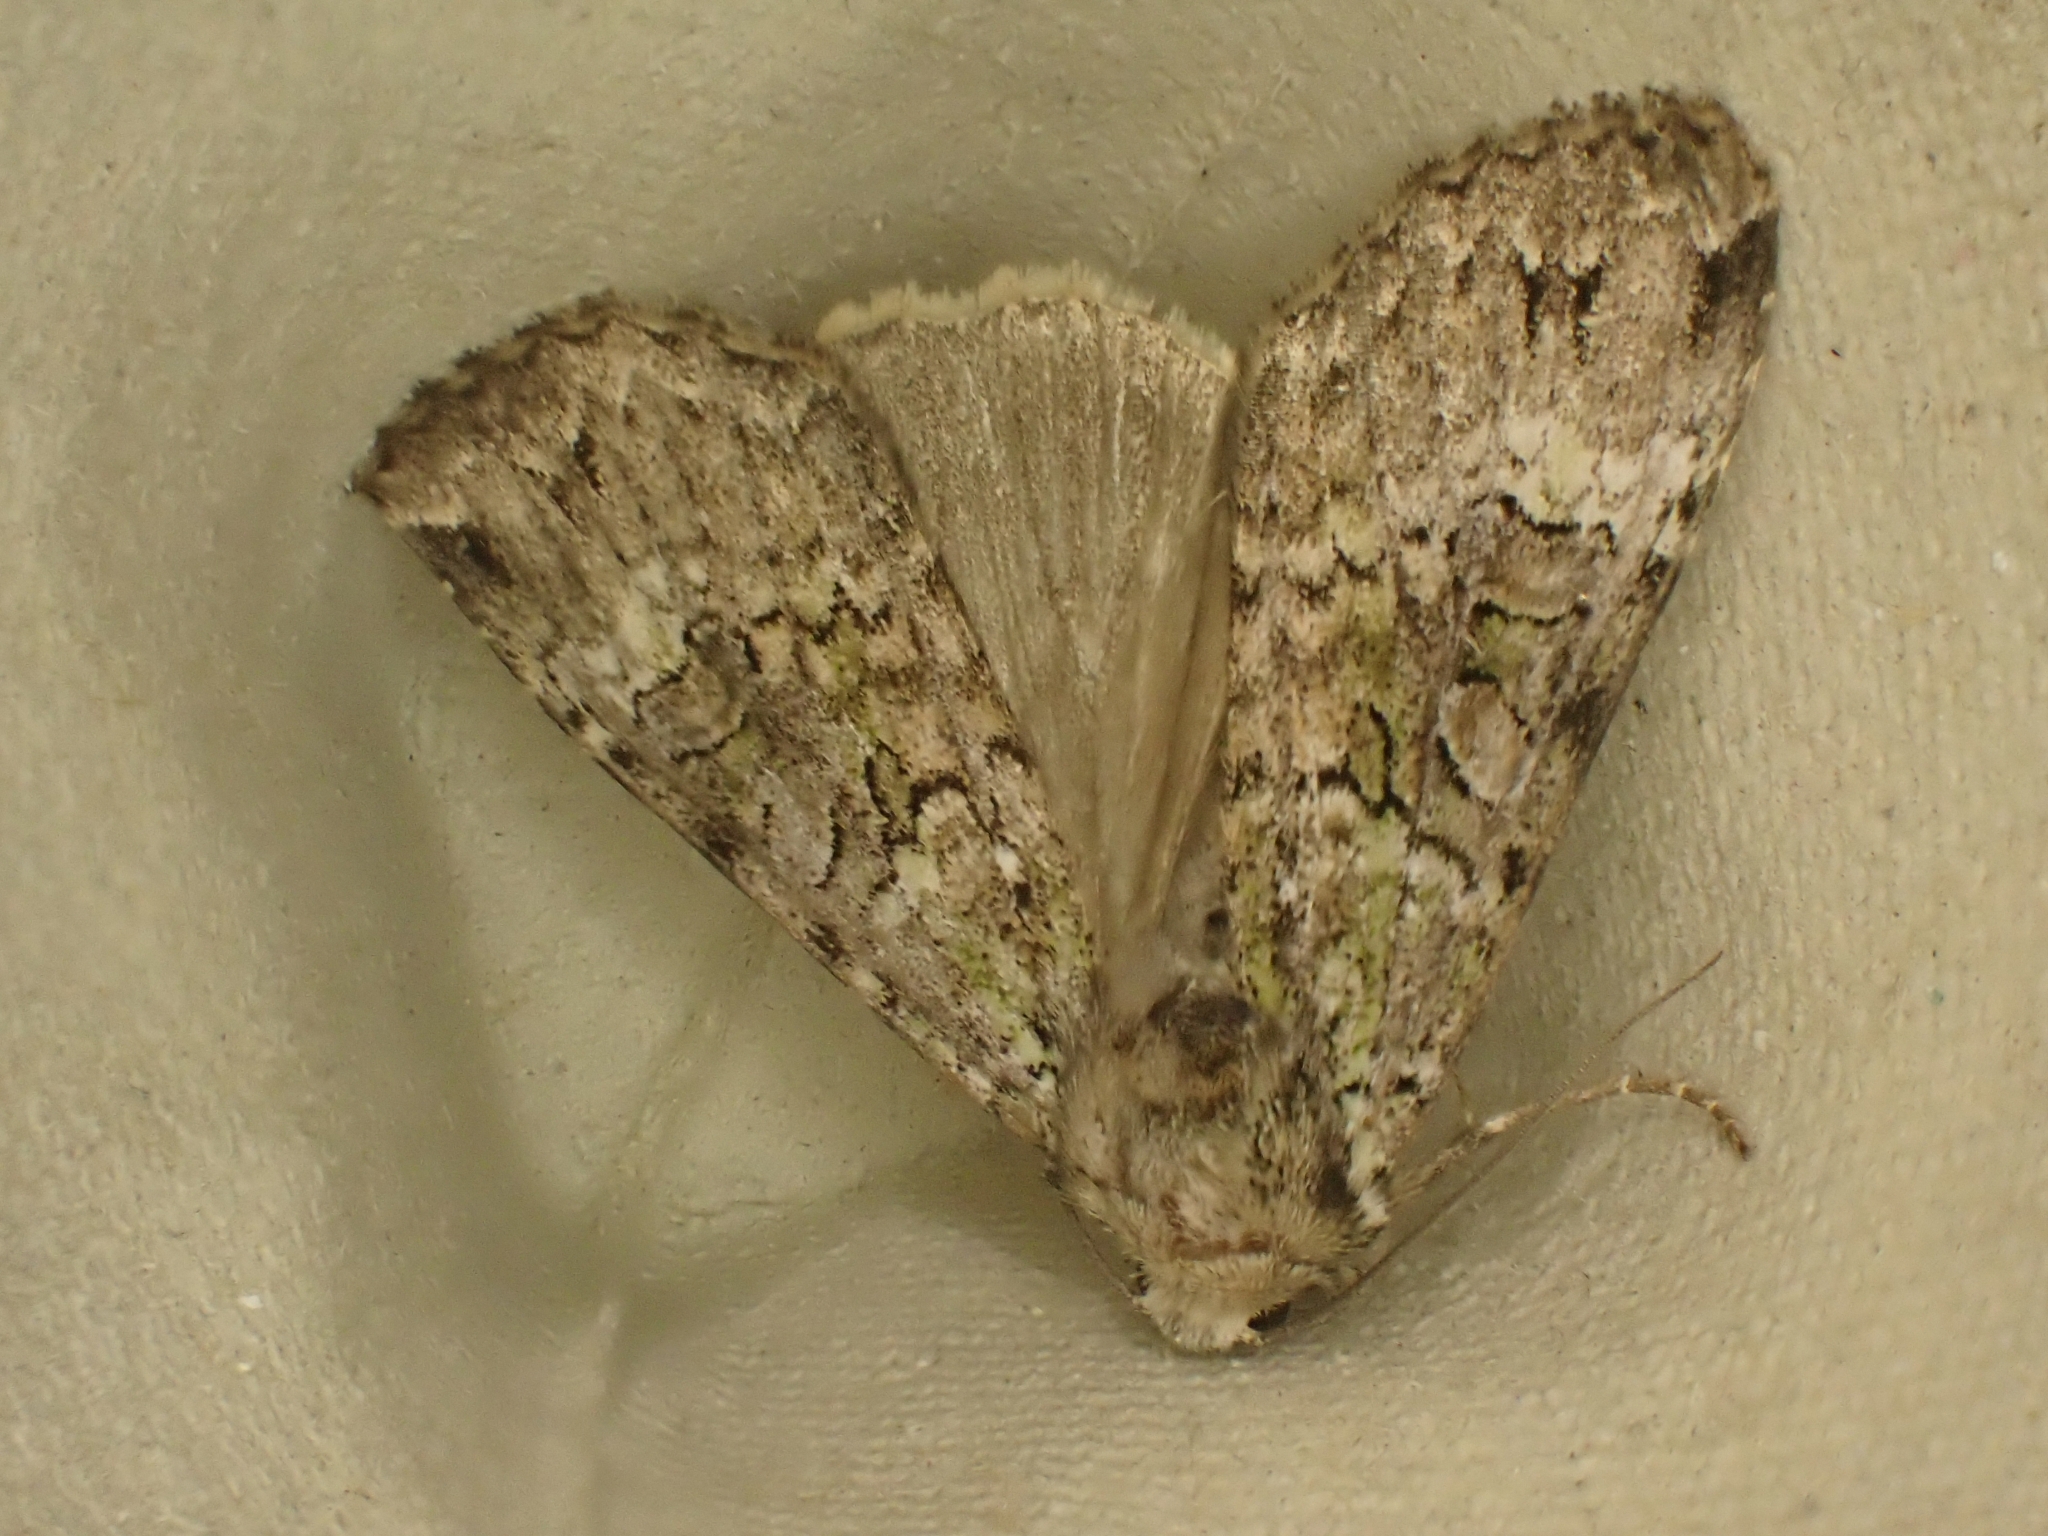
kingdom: Animalia
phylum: Arthropoda
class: Insecta
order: Lepidoptera
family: Noctuidae
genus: Anaplectoides
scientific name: Anaplectoides prasina
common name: Green arches
